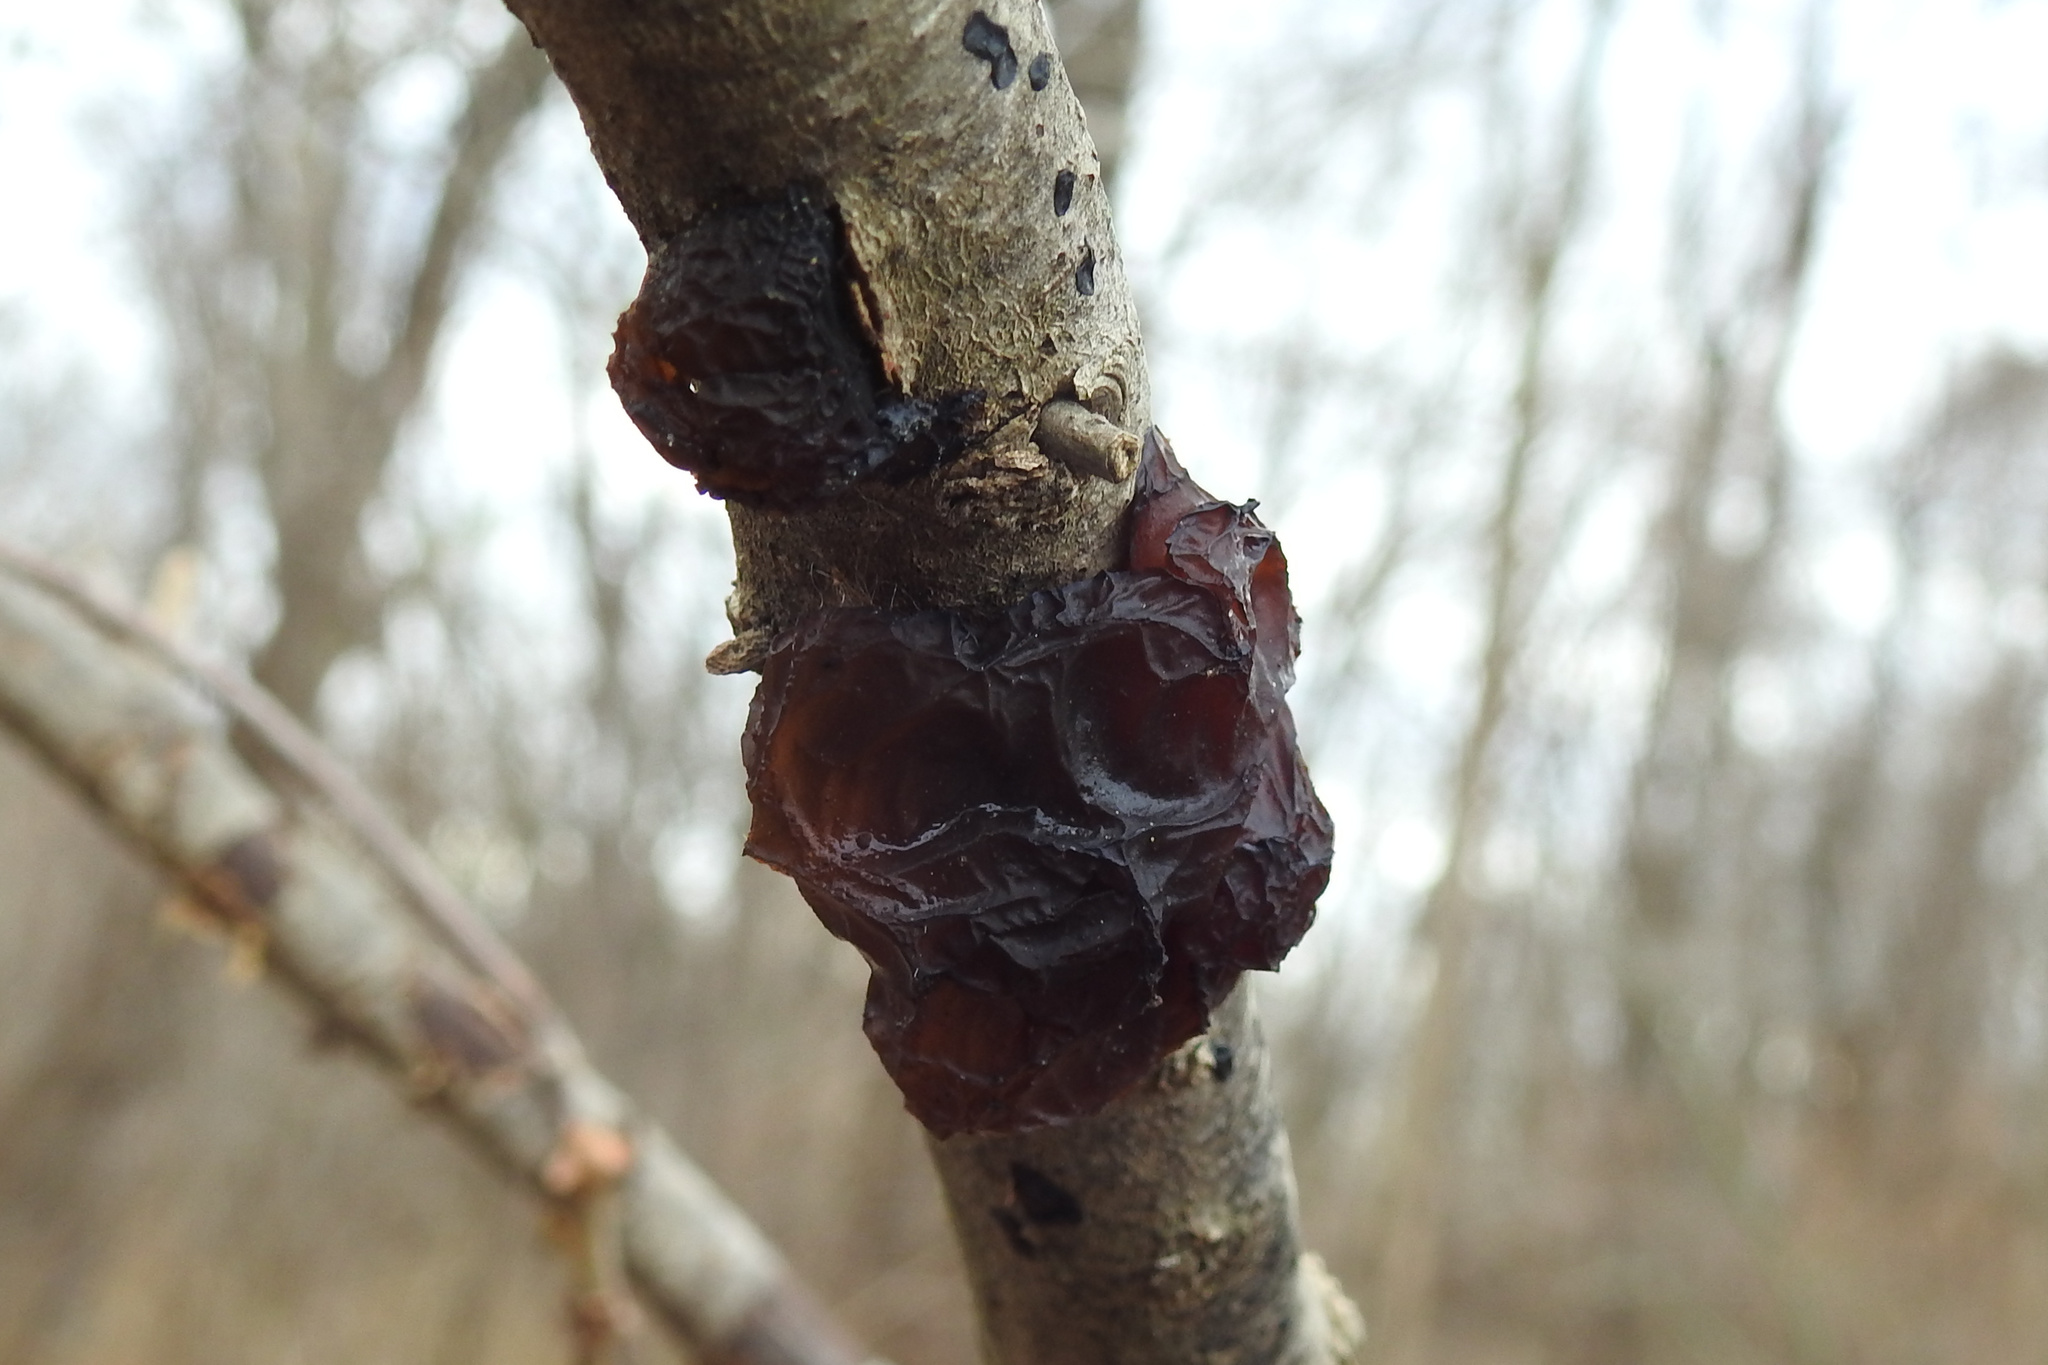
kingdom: Fungi
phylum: Basidiomycota
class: Agaricomycetes
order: Auriculariales
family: Auriculariaceae
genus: Exidia
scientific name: Exidia
